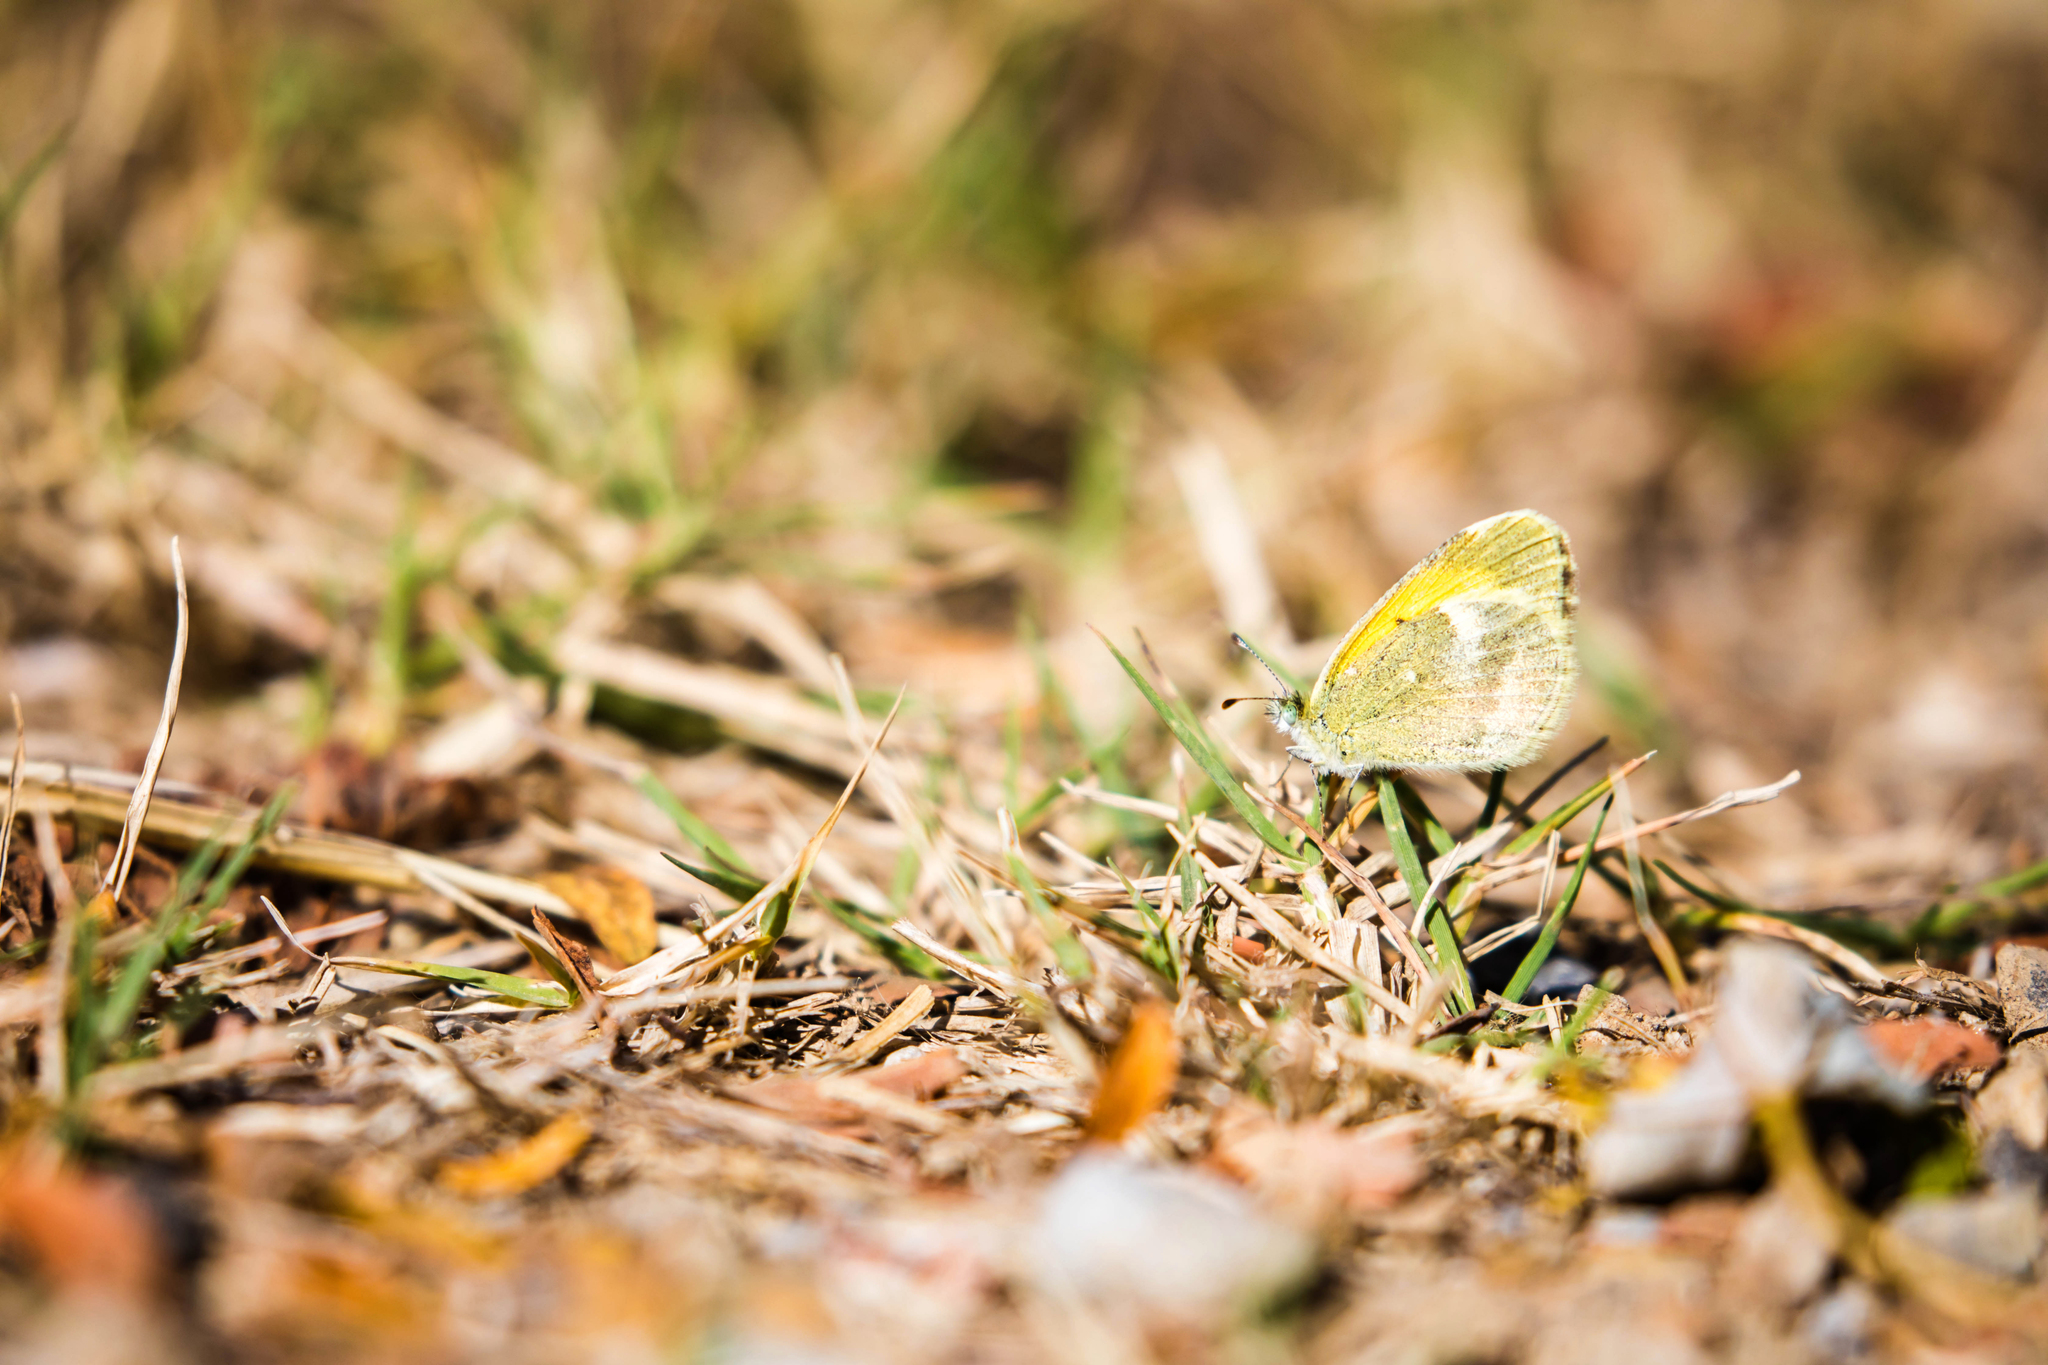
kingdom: Animalia
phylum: Arthropoda
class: Insecta
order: Lepidoptera
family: Pieridae
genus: Nathalis
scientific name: Nathalis iole
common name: Dainty sulphur
